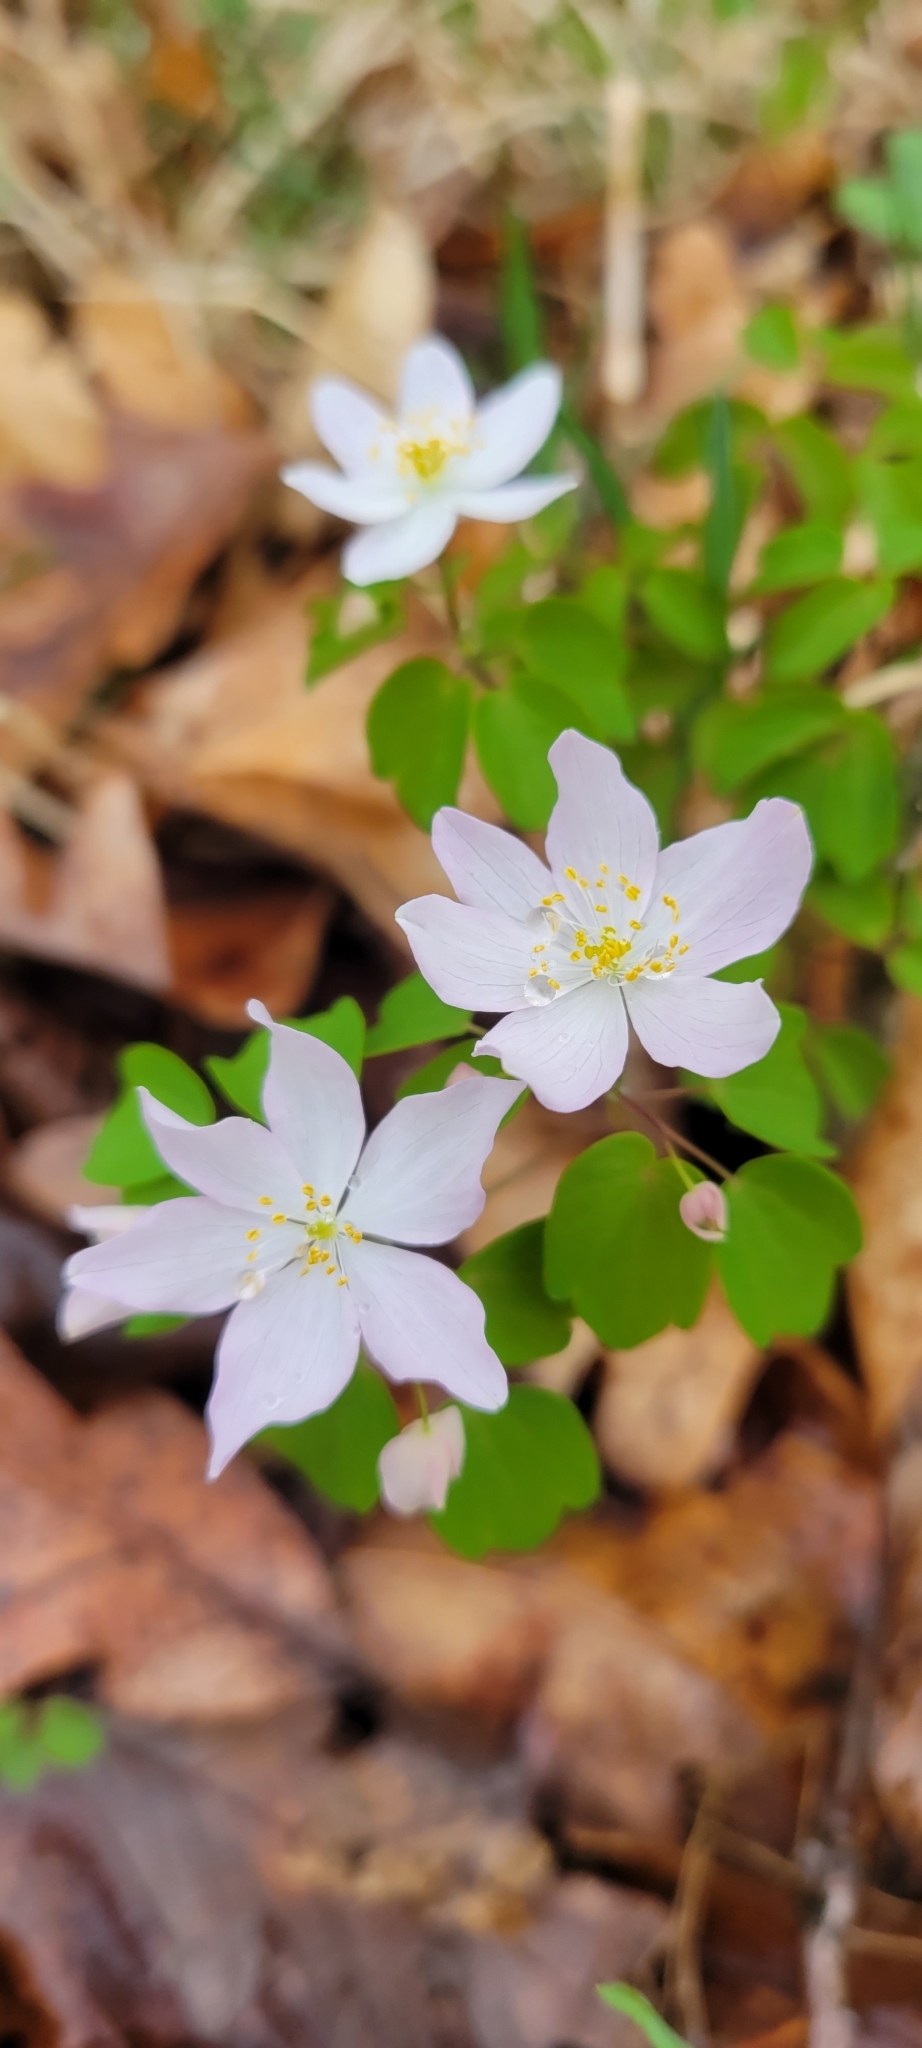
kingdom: Plantae
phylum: Tracheophyta
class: Magnoliopsida
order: Ranunculales
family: Ranunculaceae
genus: Thalictrum
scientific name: Thalictrum thalictroides
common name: Rue-anemone
